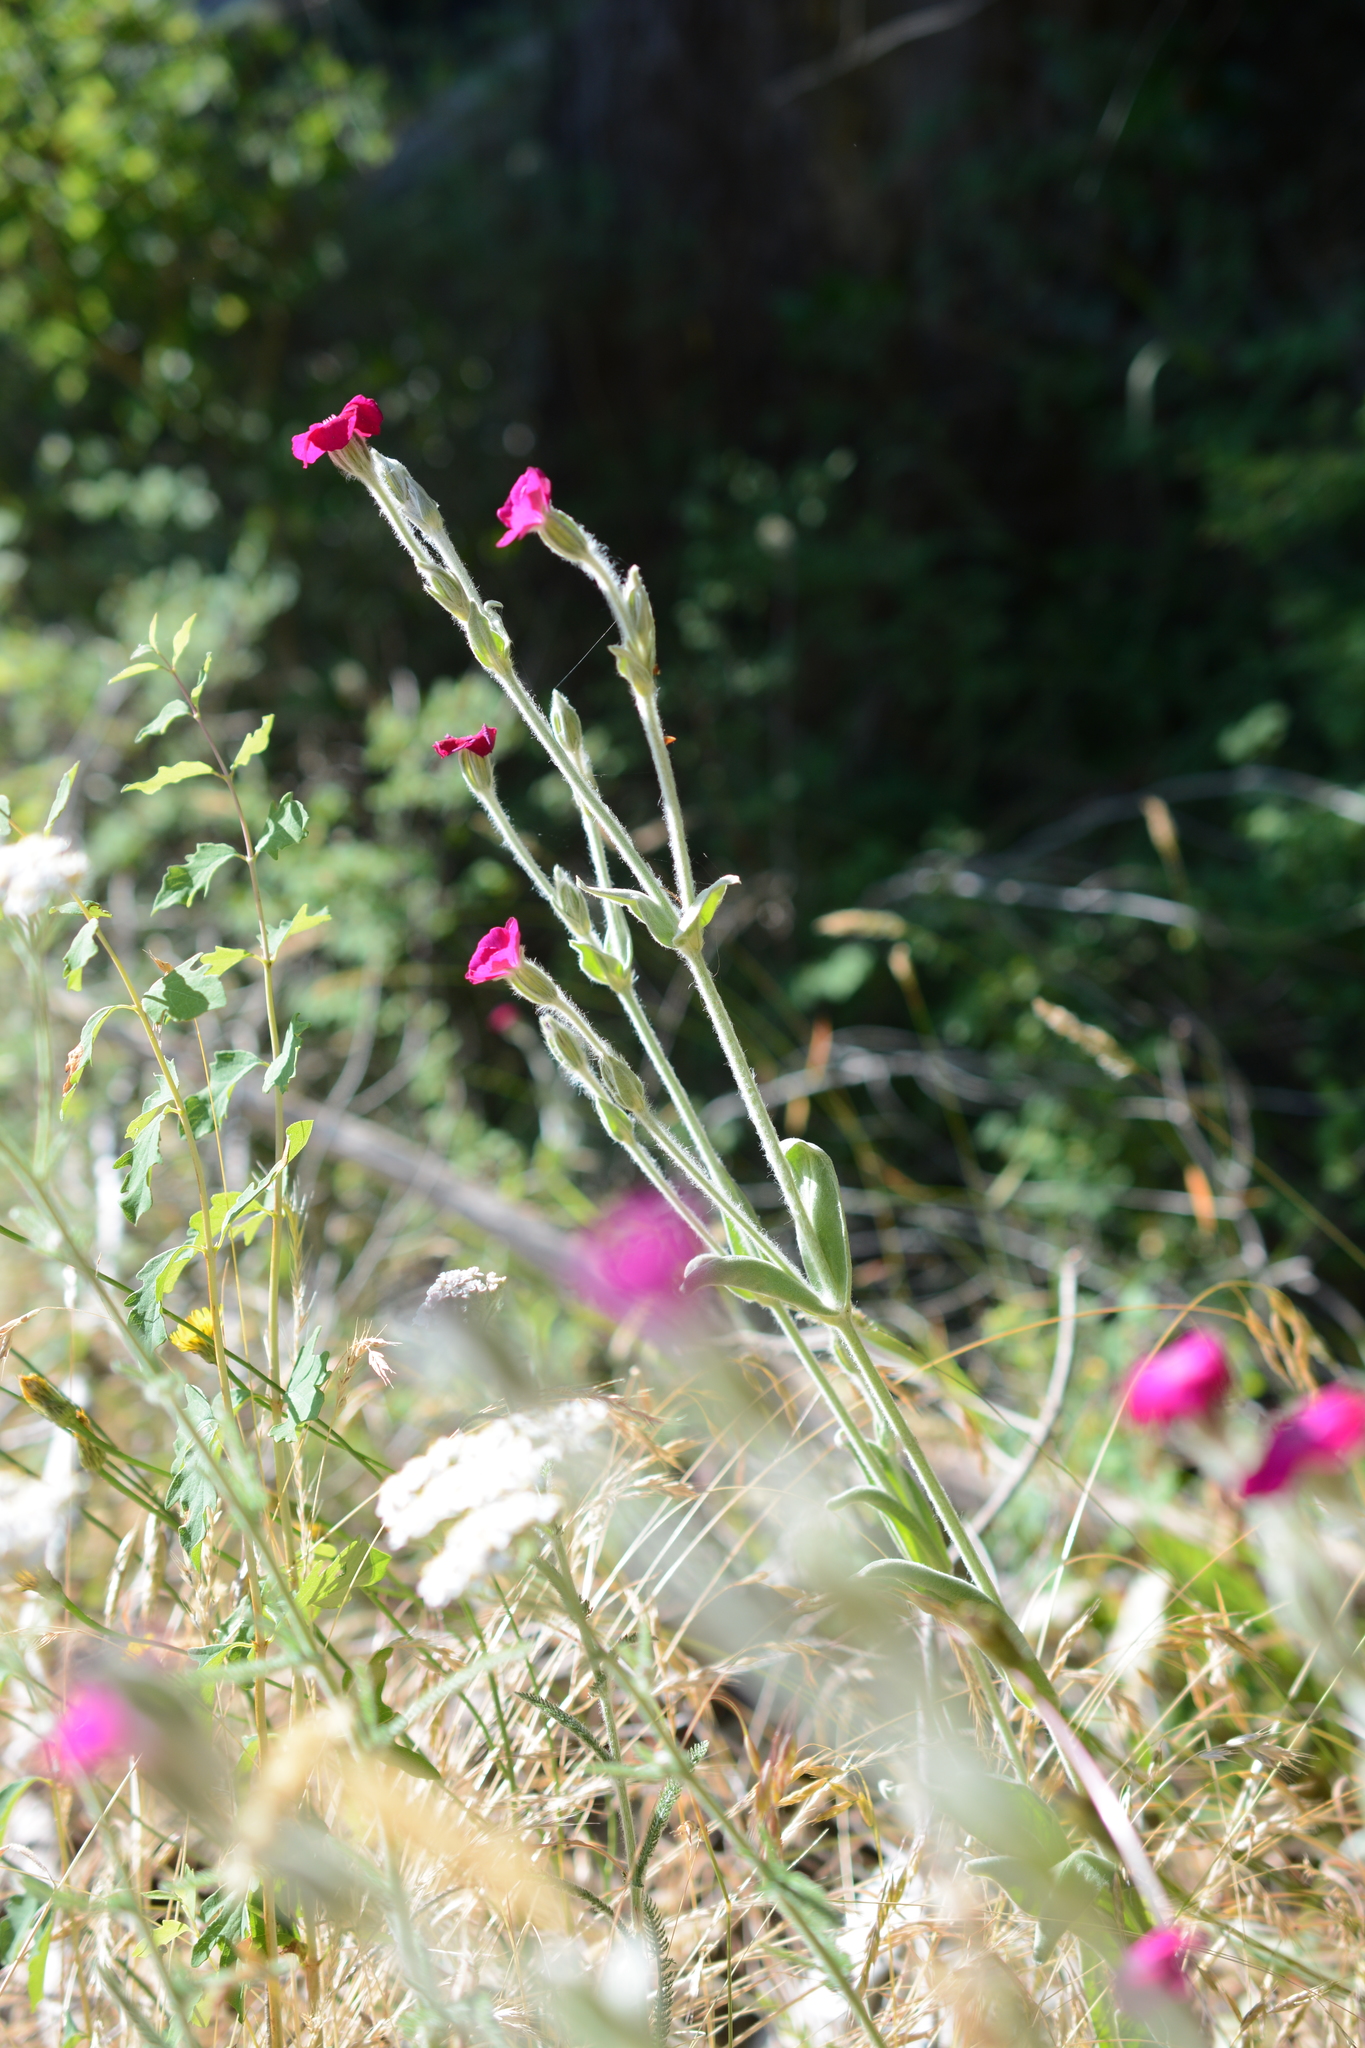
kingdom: Plantae
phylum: Tracheophyta
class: Magnoliopsida
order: Caryophyllales
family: Caryophyllaceae
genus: Silene
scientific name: Silene coronaria
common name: Rose campion
